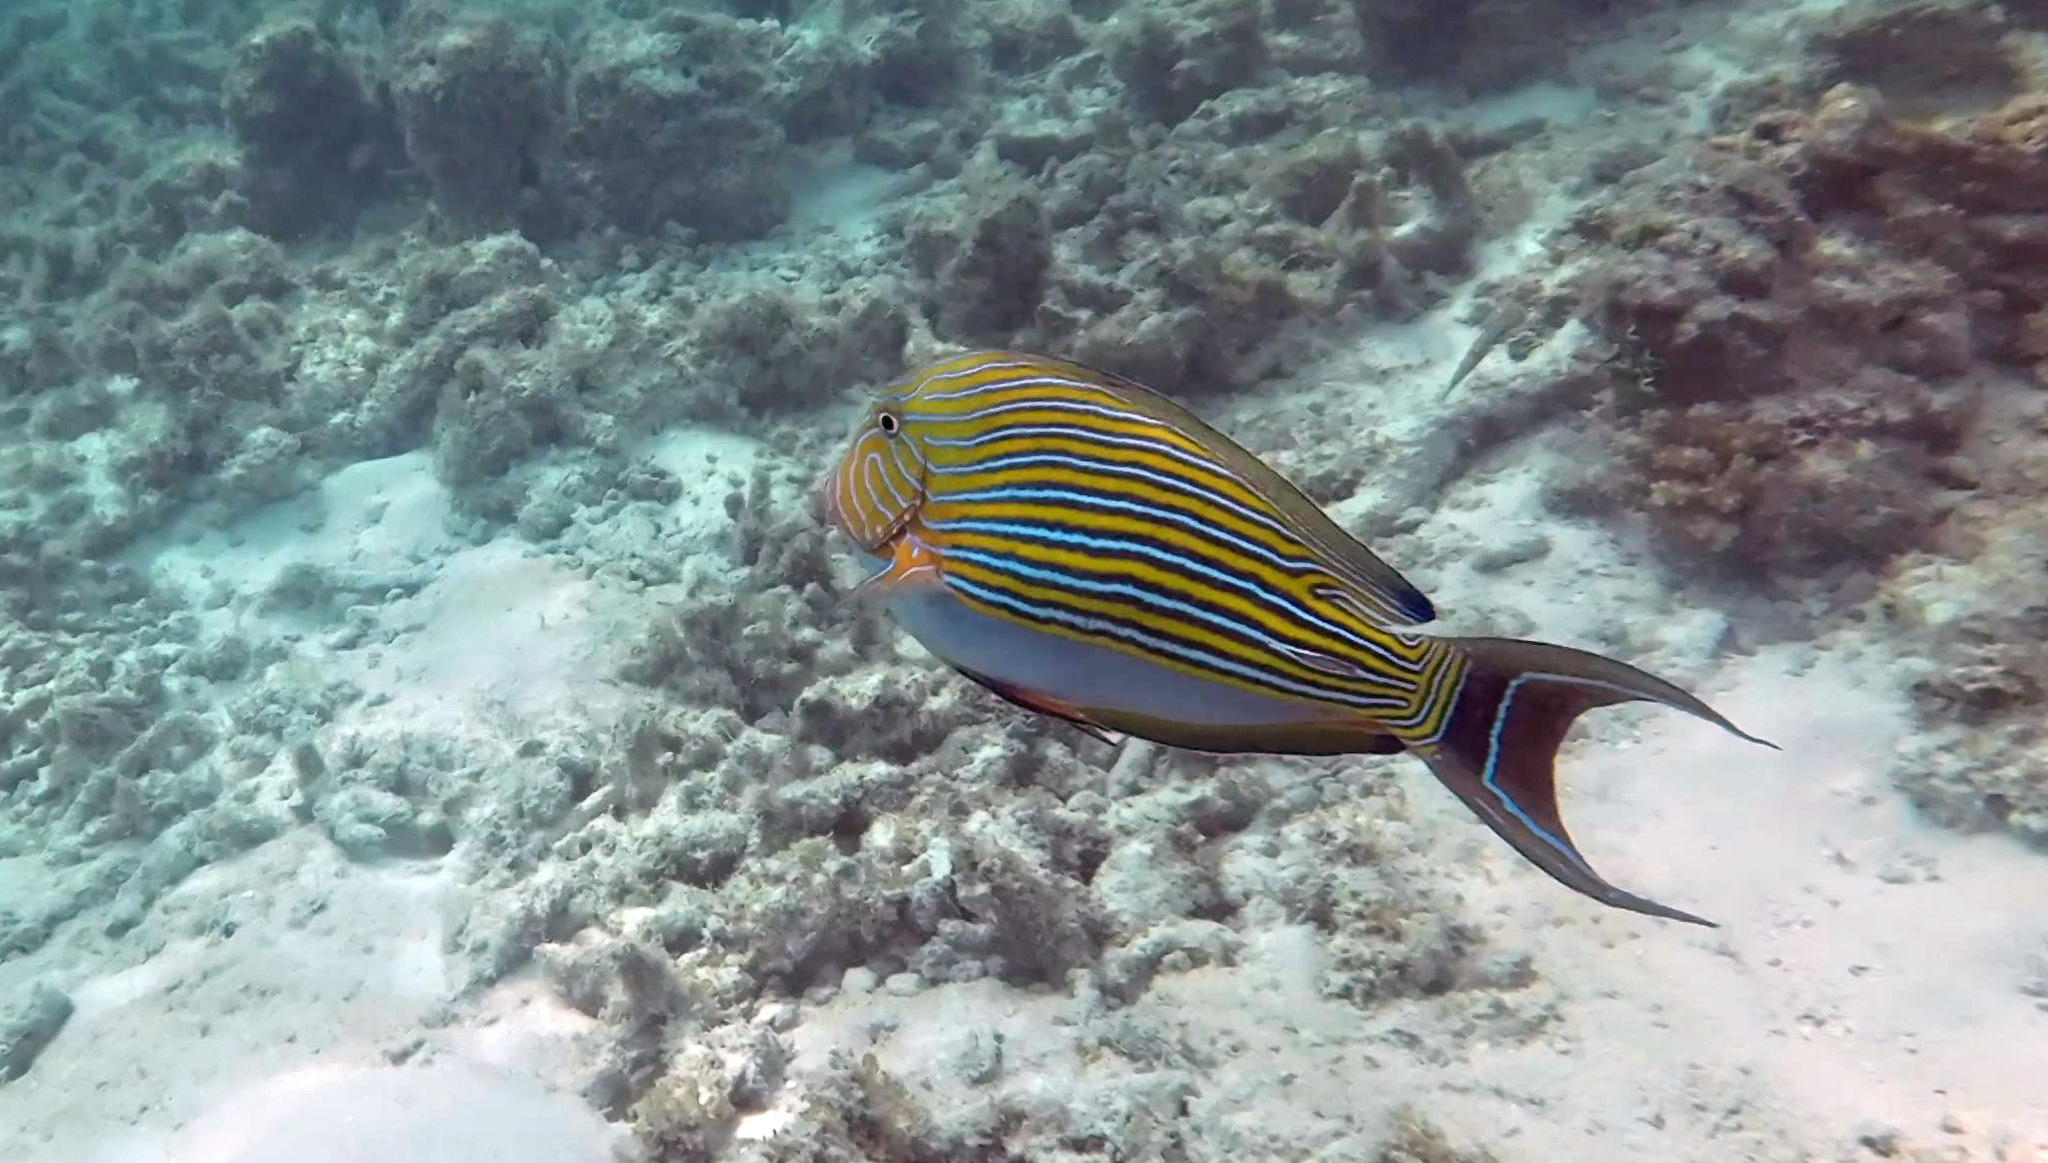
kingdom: Animalia
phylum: Chordata
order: Perciformes
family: Acanthuridae
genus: Acanthurus
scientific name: Acanthurus lineatus
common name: Striped surgeonfish
